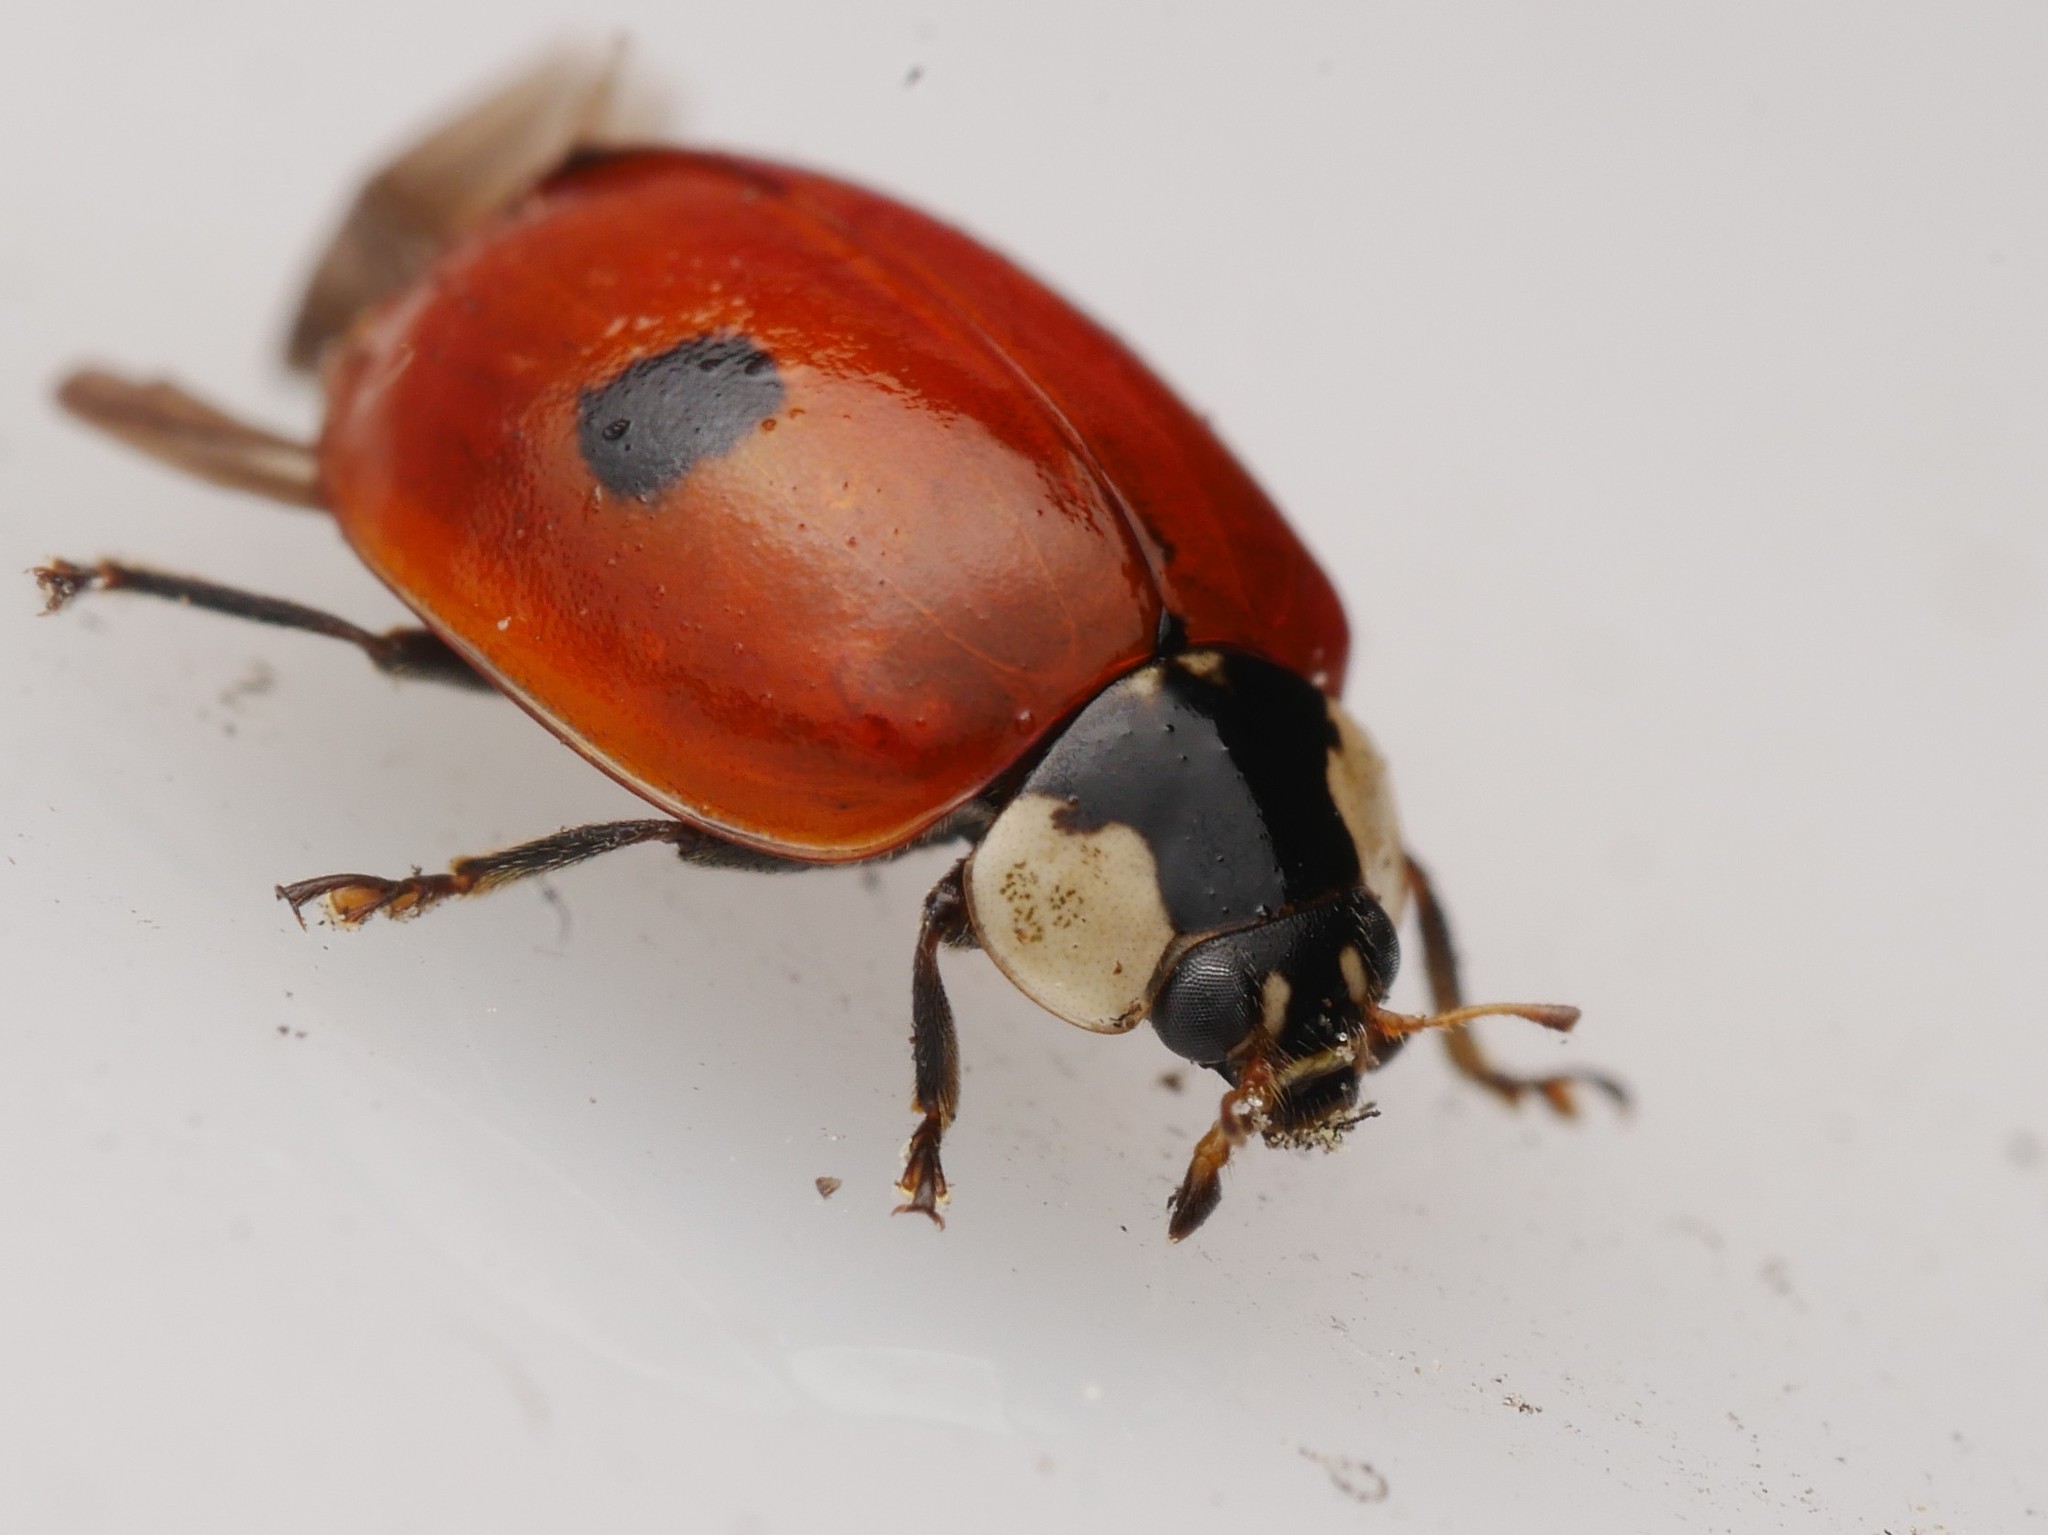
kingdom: Animalia
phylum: Arthropoda
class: Insecta
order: Coleoptera
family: Coccinellidae
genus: Adalia
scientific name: Adalia bipunctata
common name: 2-spot ladybird
